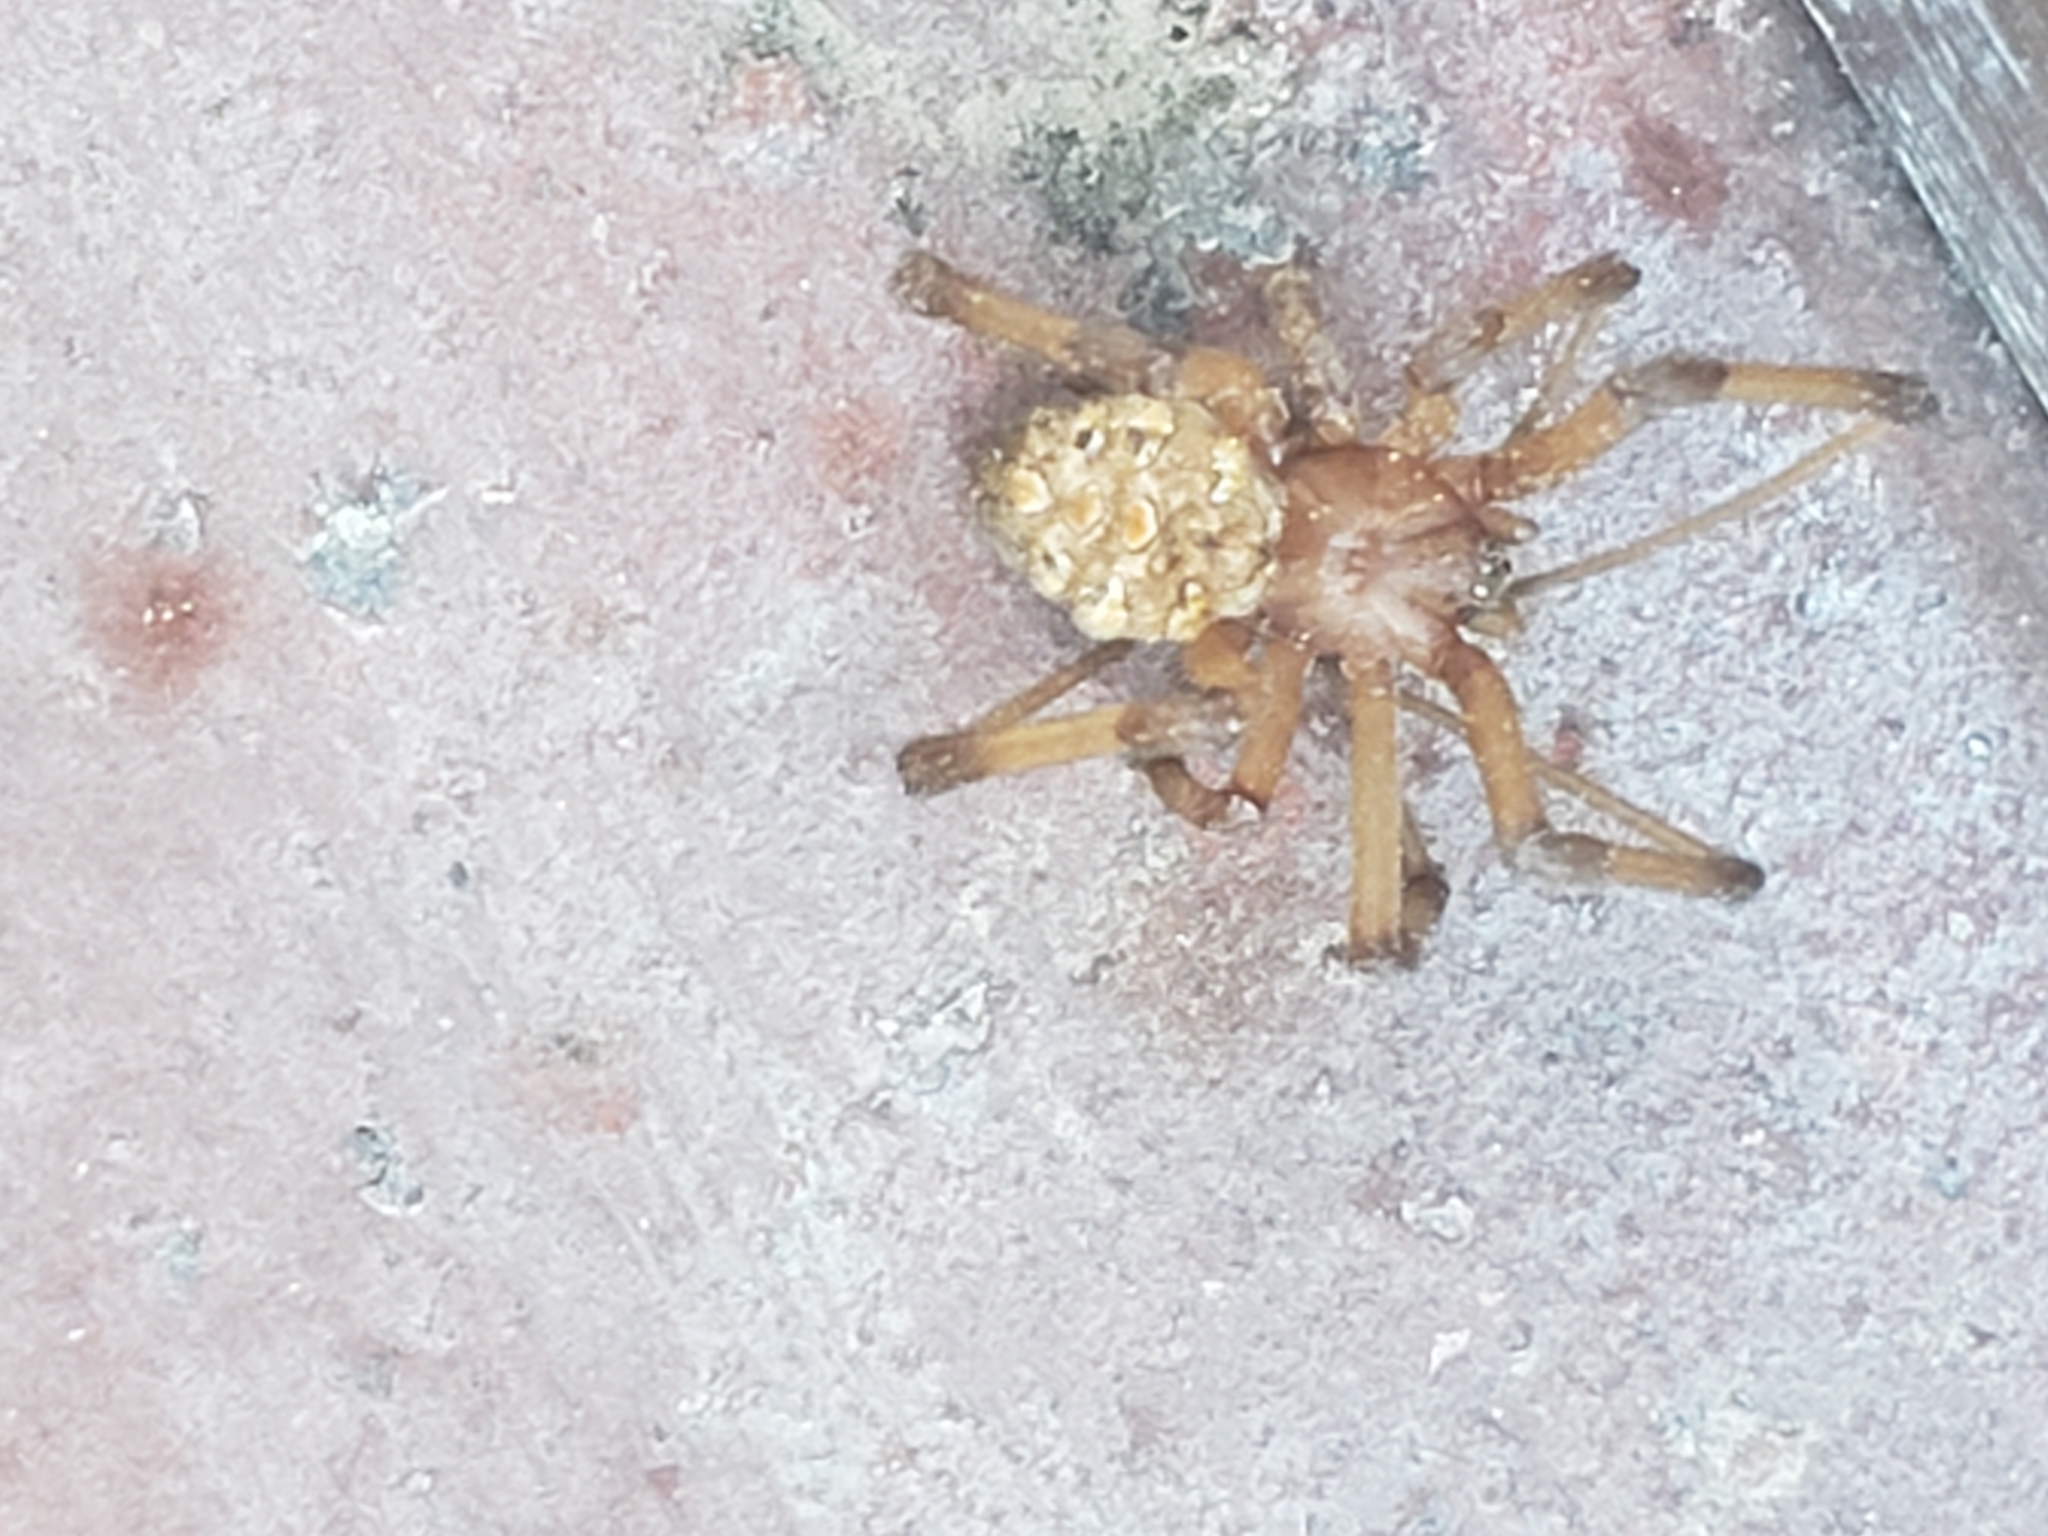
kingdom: Animalia
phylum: Arthropoda
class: Arachnida
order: Araneae
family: Theridiidae
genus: Latrodectus
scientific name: Latrodectus geometricus
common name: Brown widow spider
